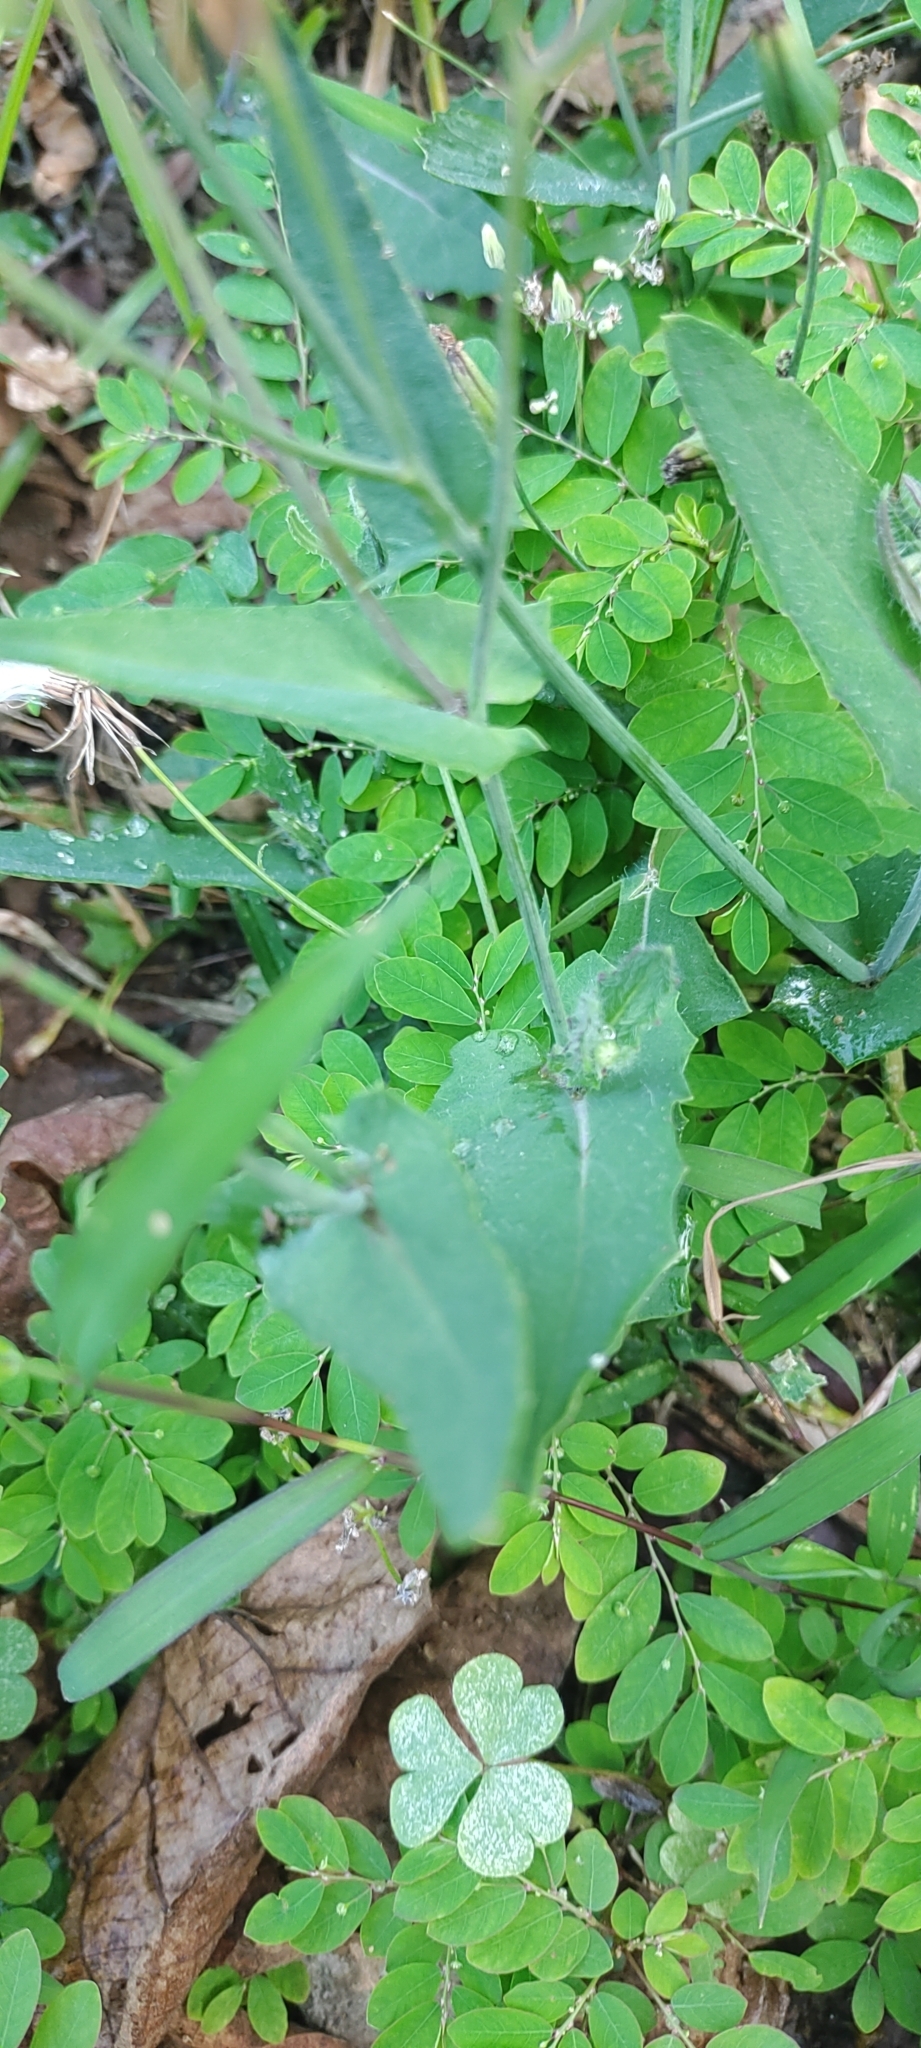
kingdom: Plantae
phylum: Tracheophyta
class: Magnoliopsida
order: Asterales
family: Asteraceae
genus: Emilia
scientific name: Emilia javanica
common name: Tassel-flower
